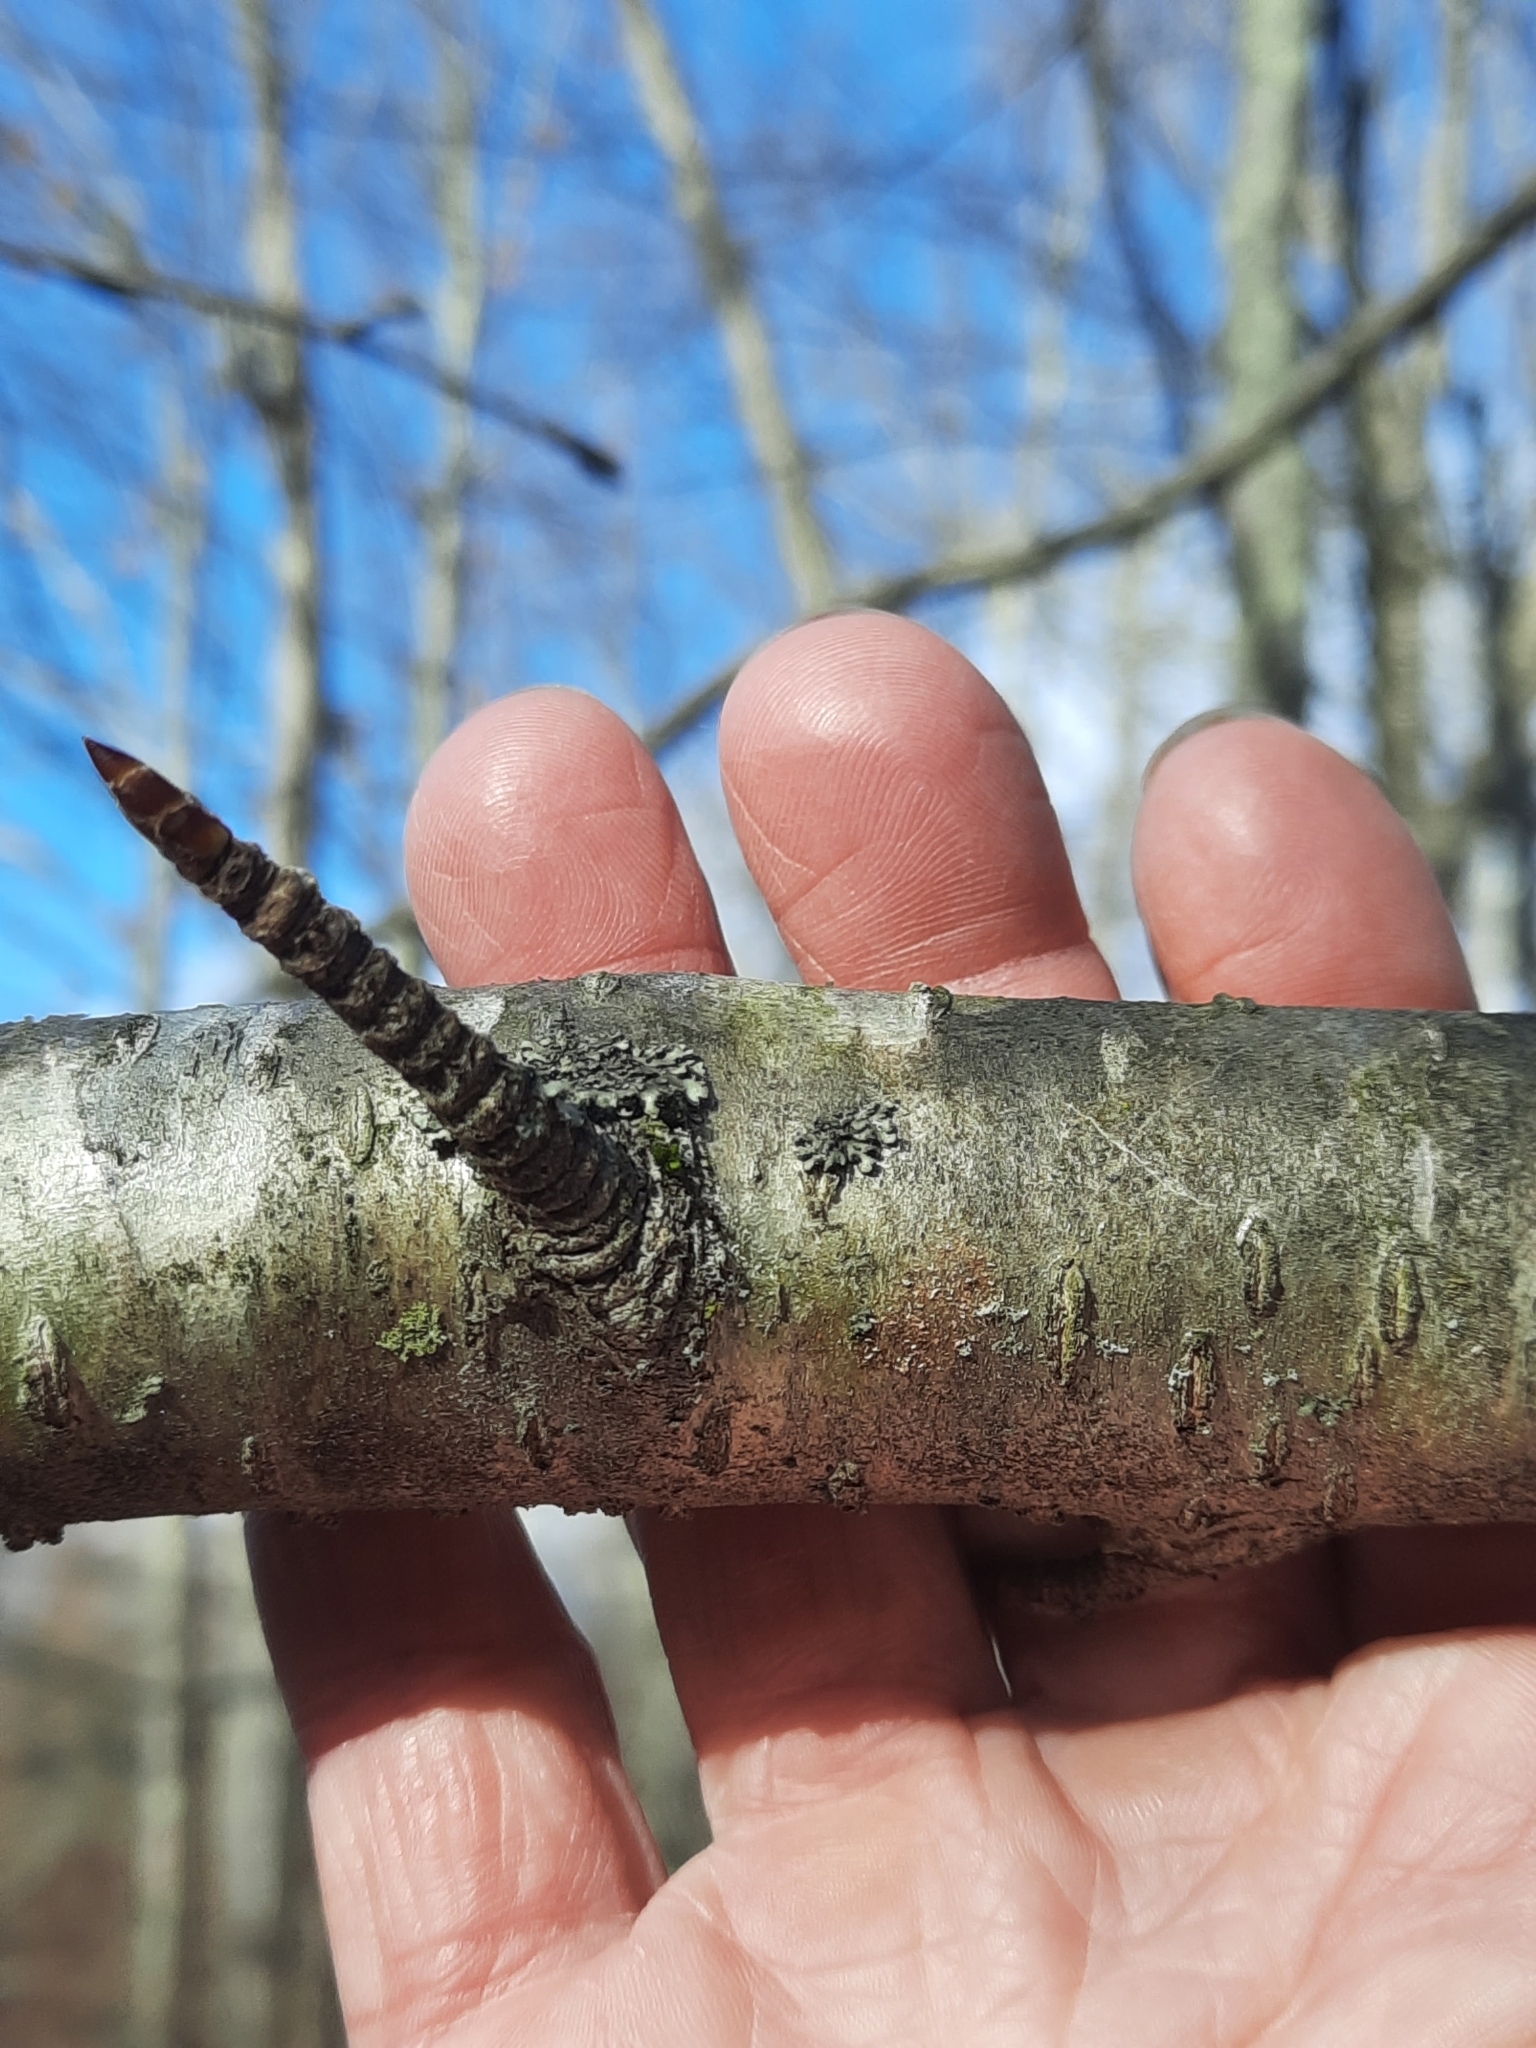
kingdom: Plantae
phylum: Tracheophyta
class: Magnoliopsida
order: Fagales
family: Betulaceae
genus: Betula
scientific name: Betula alleghaniensis
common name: Yellow birch
